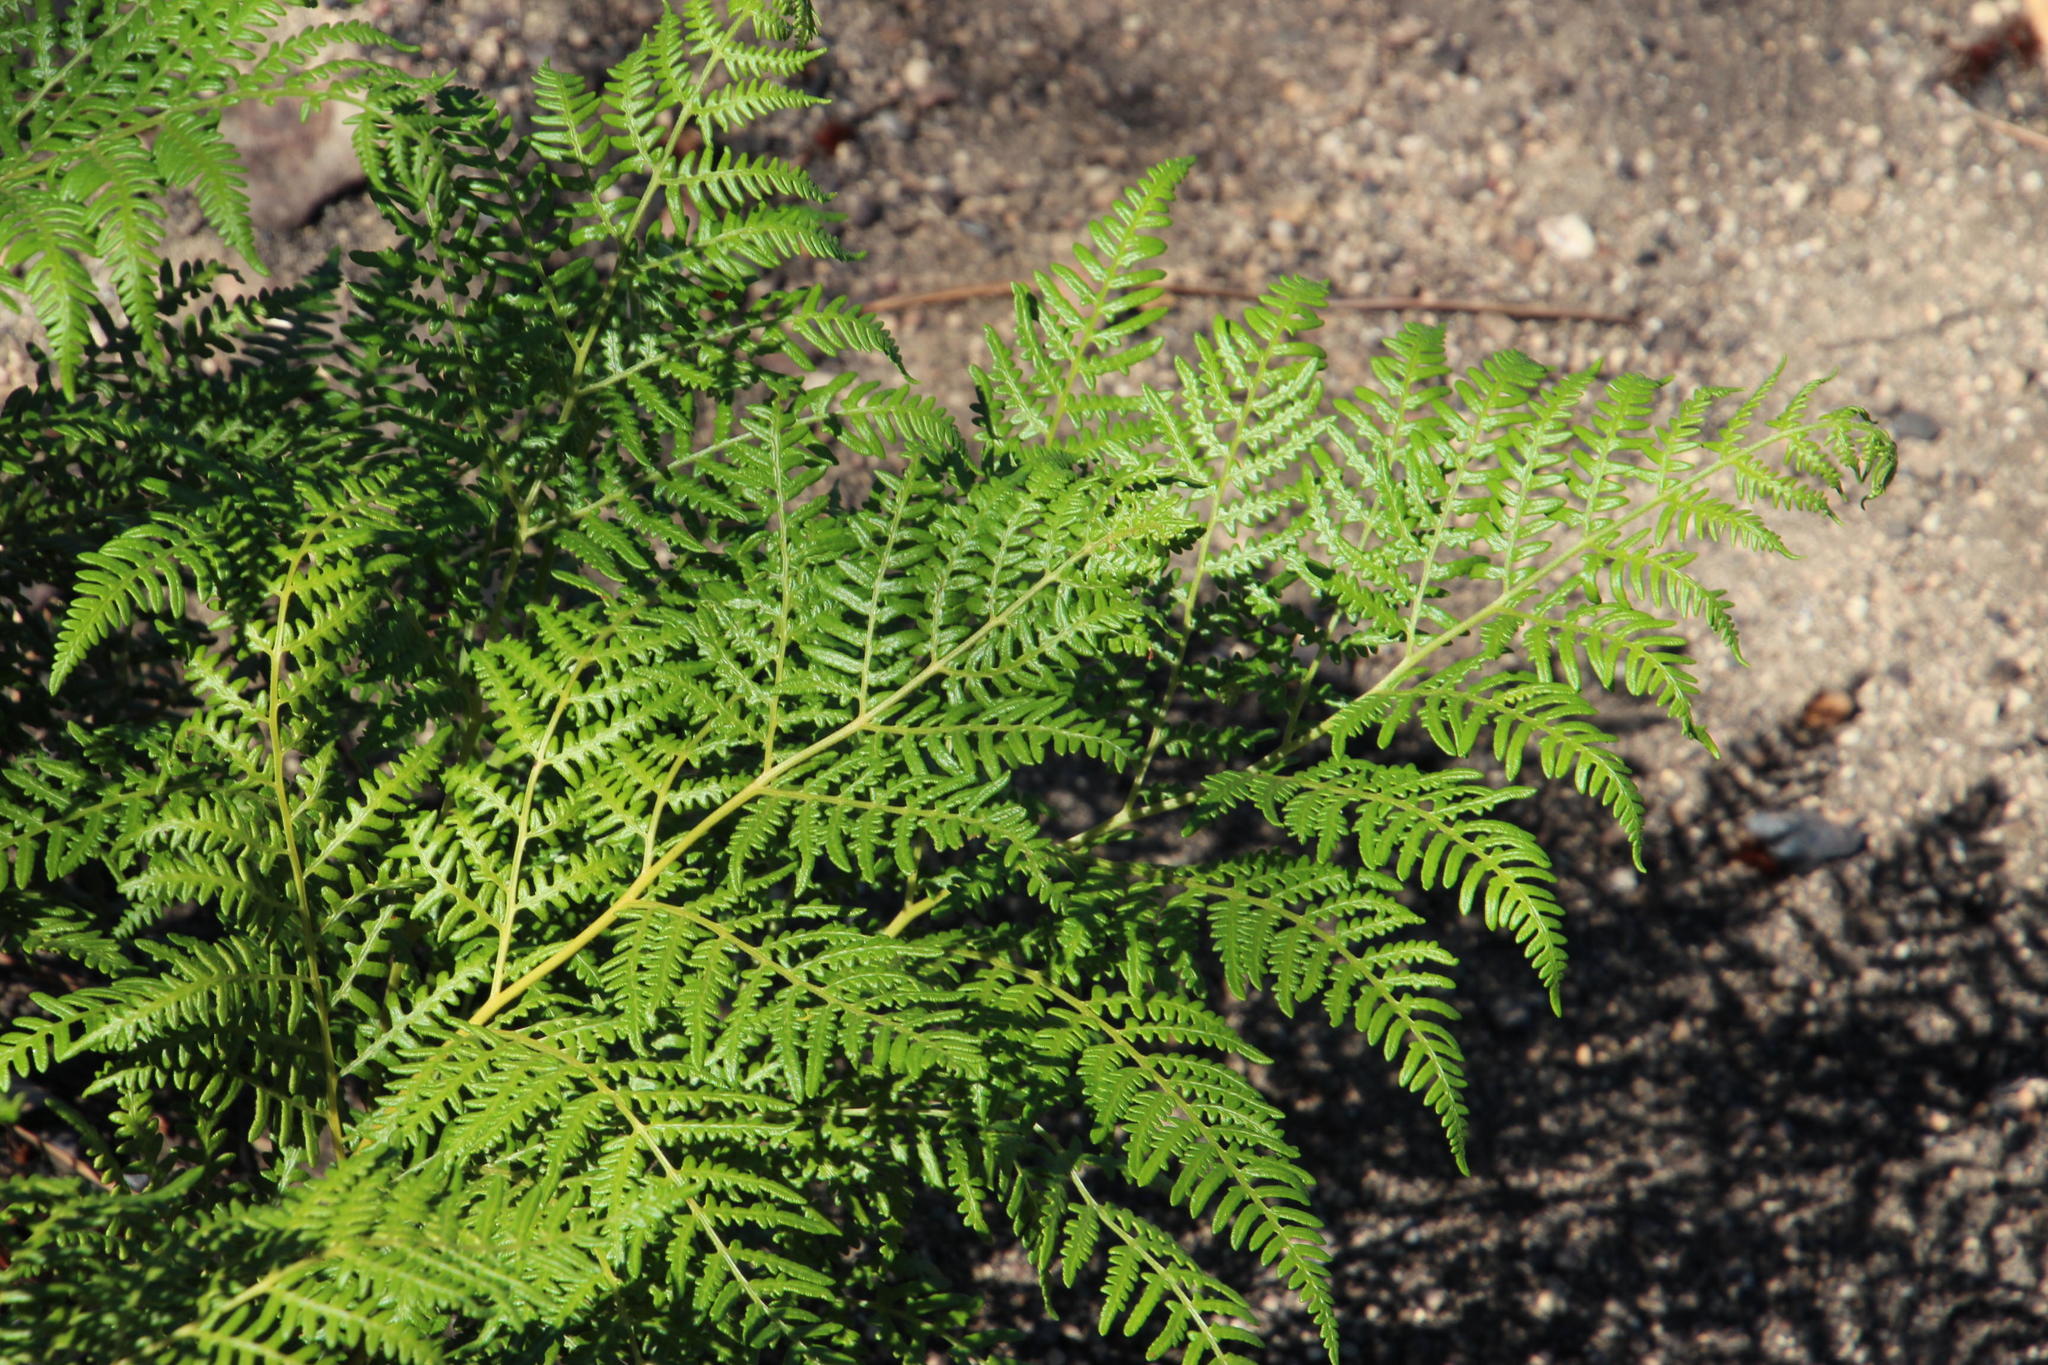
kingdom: Plantae
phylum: Tracheophyta
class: Polypodiopsida
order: Polypodiales
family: Dennstaedtiaceae
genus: Pteridium
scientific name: Pteridium aquilinum
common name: Bracken
